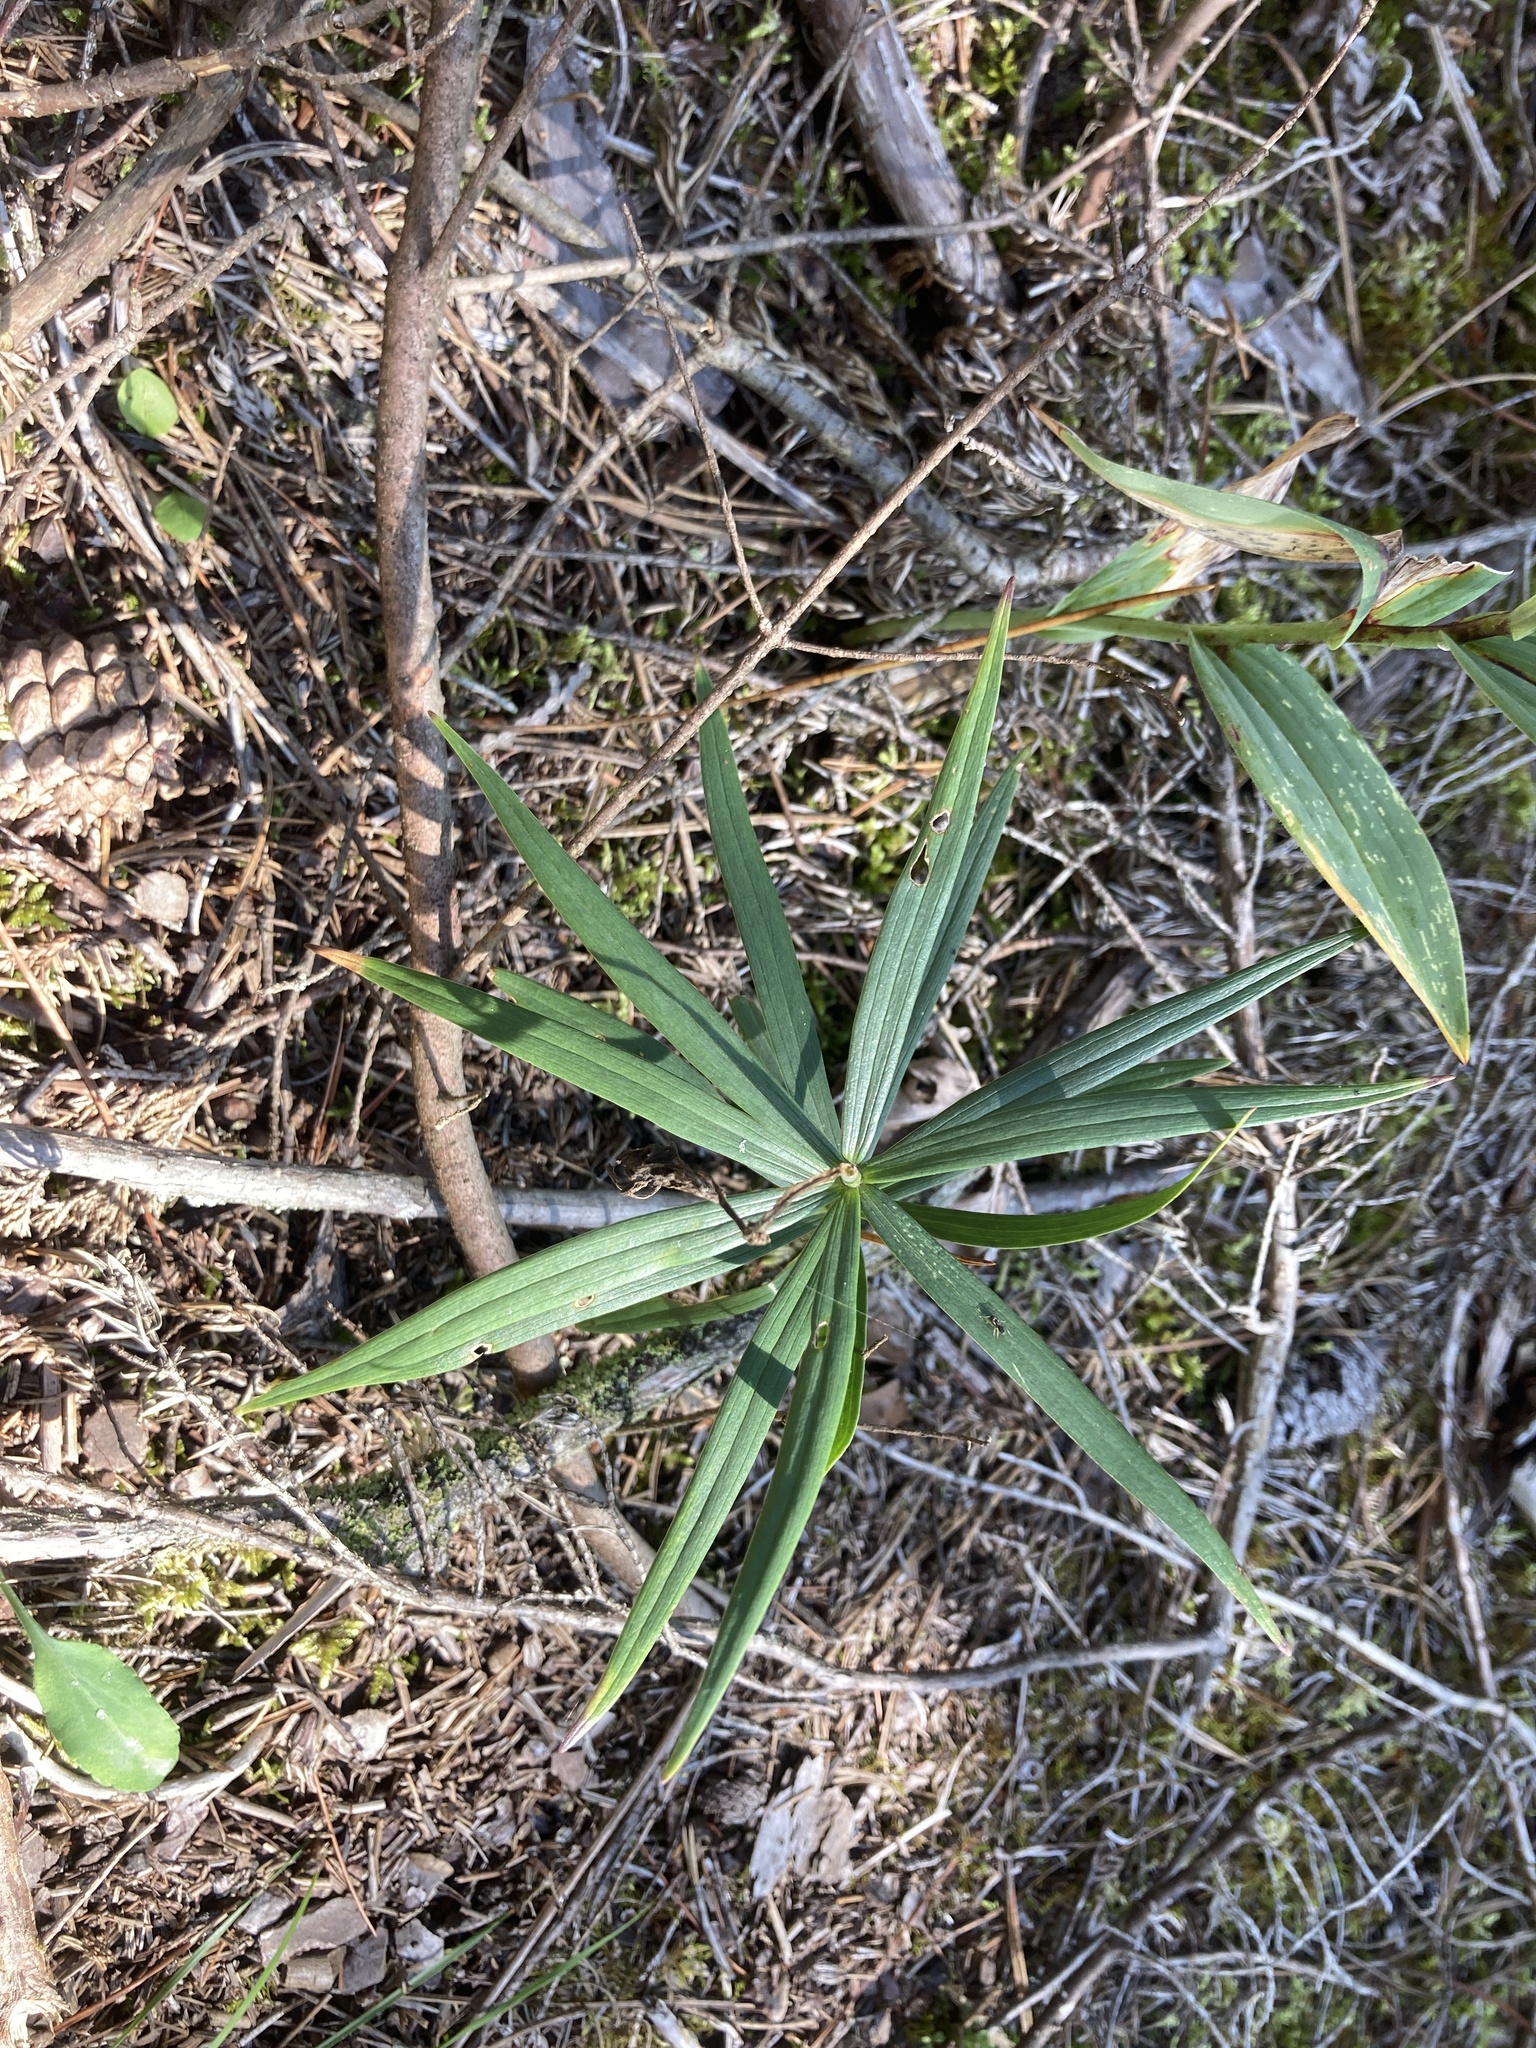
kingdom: Plantae
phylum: Tracheophyta
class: Liliopsida
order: Liliales
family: Liliaceae
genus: Lilium
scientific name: Lilium philadelphicum
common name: Red lily
